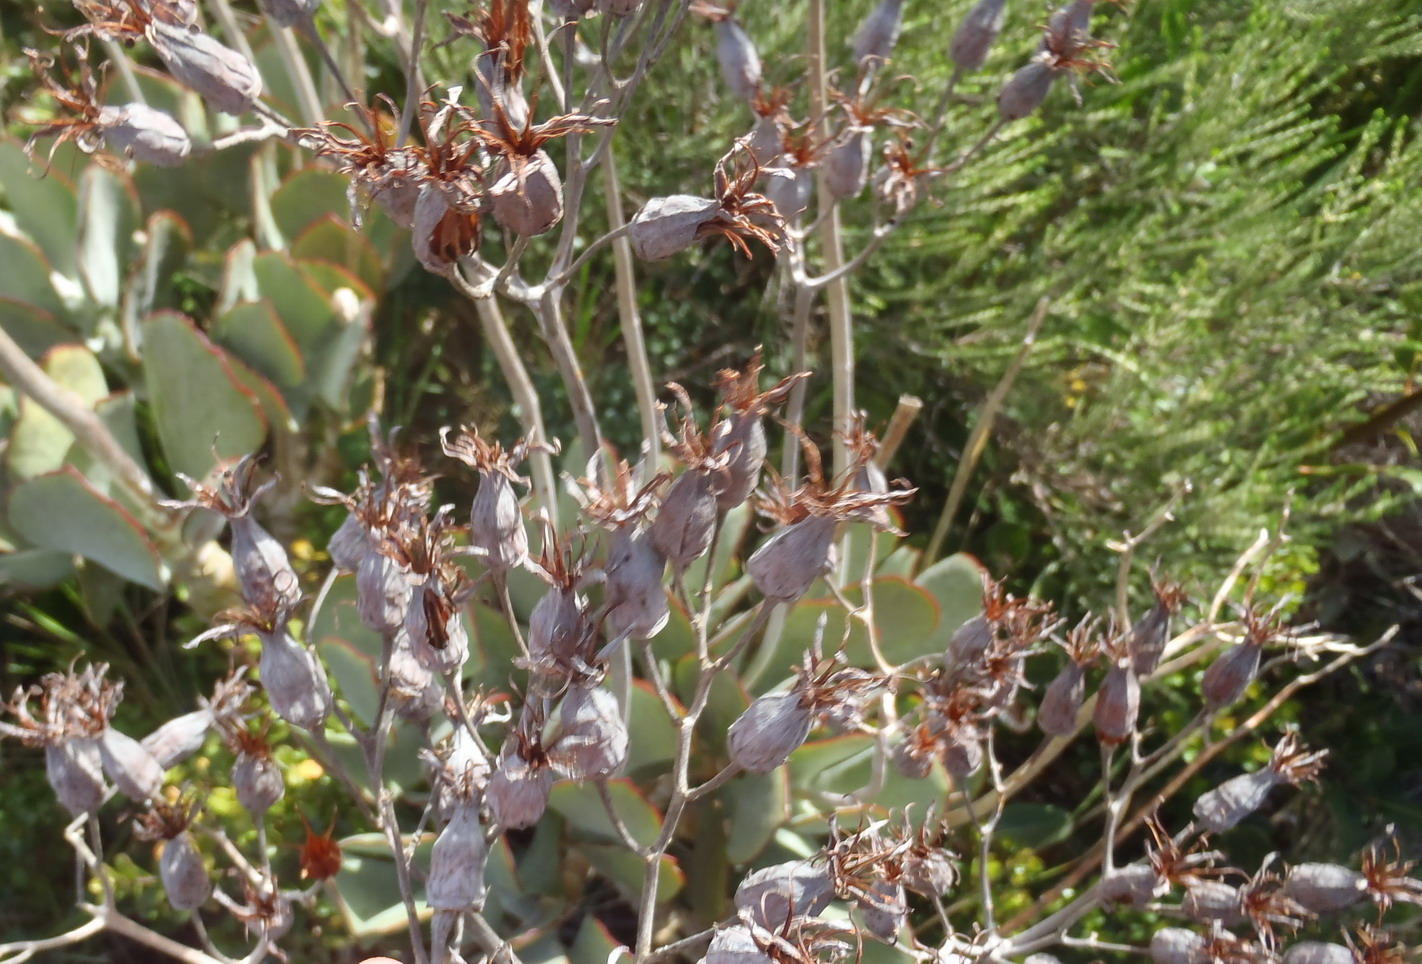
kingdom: Plantae
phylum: Tracheophyta
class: Magnoliopsida
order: Saxifragales
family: Crassulaceae
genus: Cotyledon
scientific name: Cotyledon orbiculata
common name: Pig's ear
